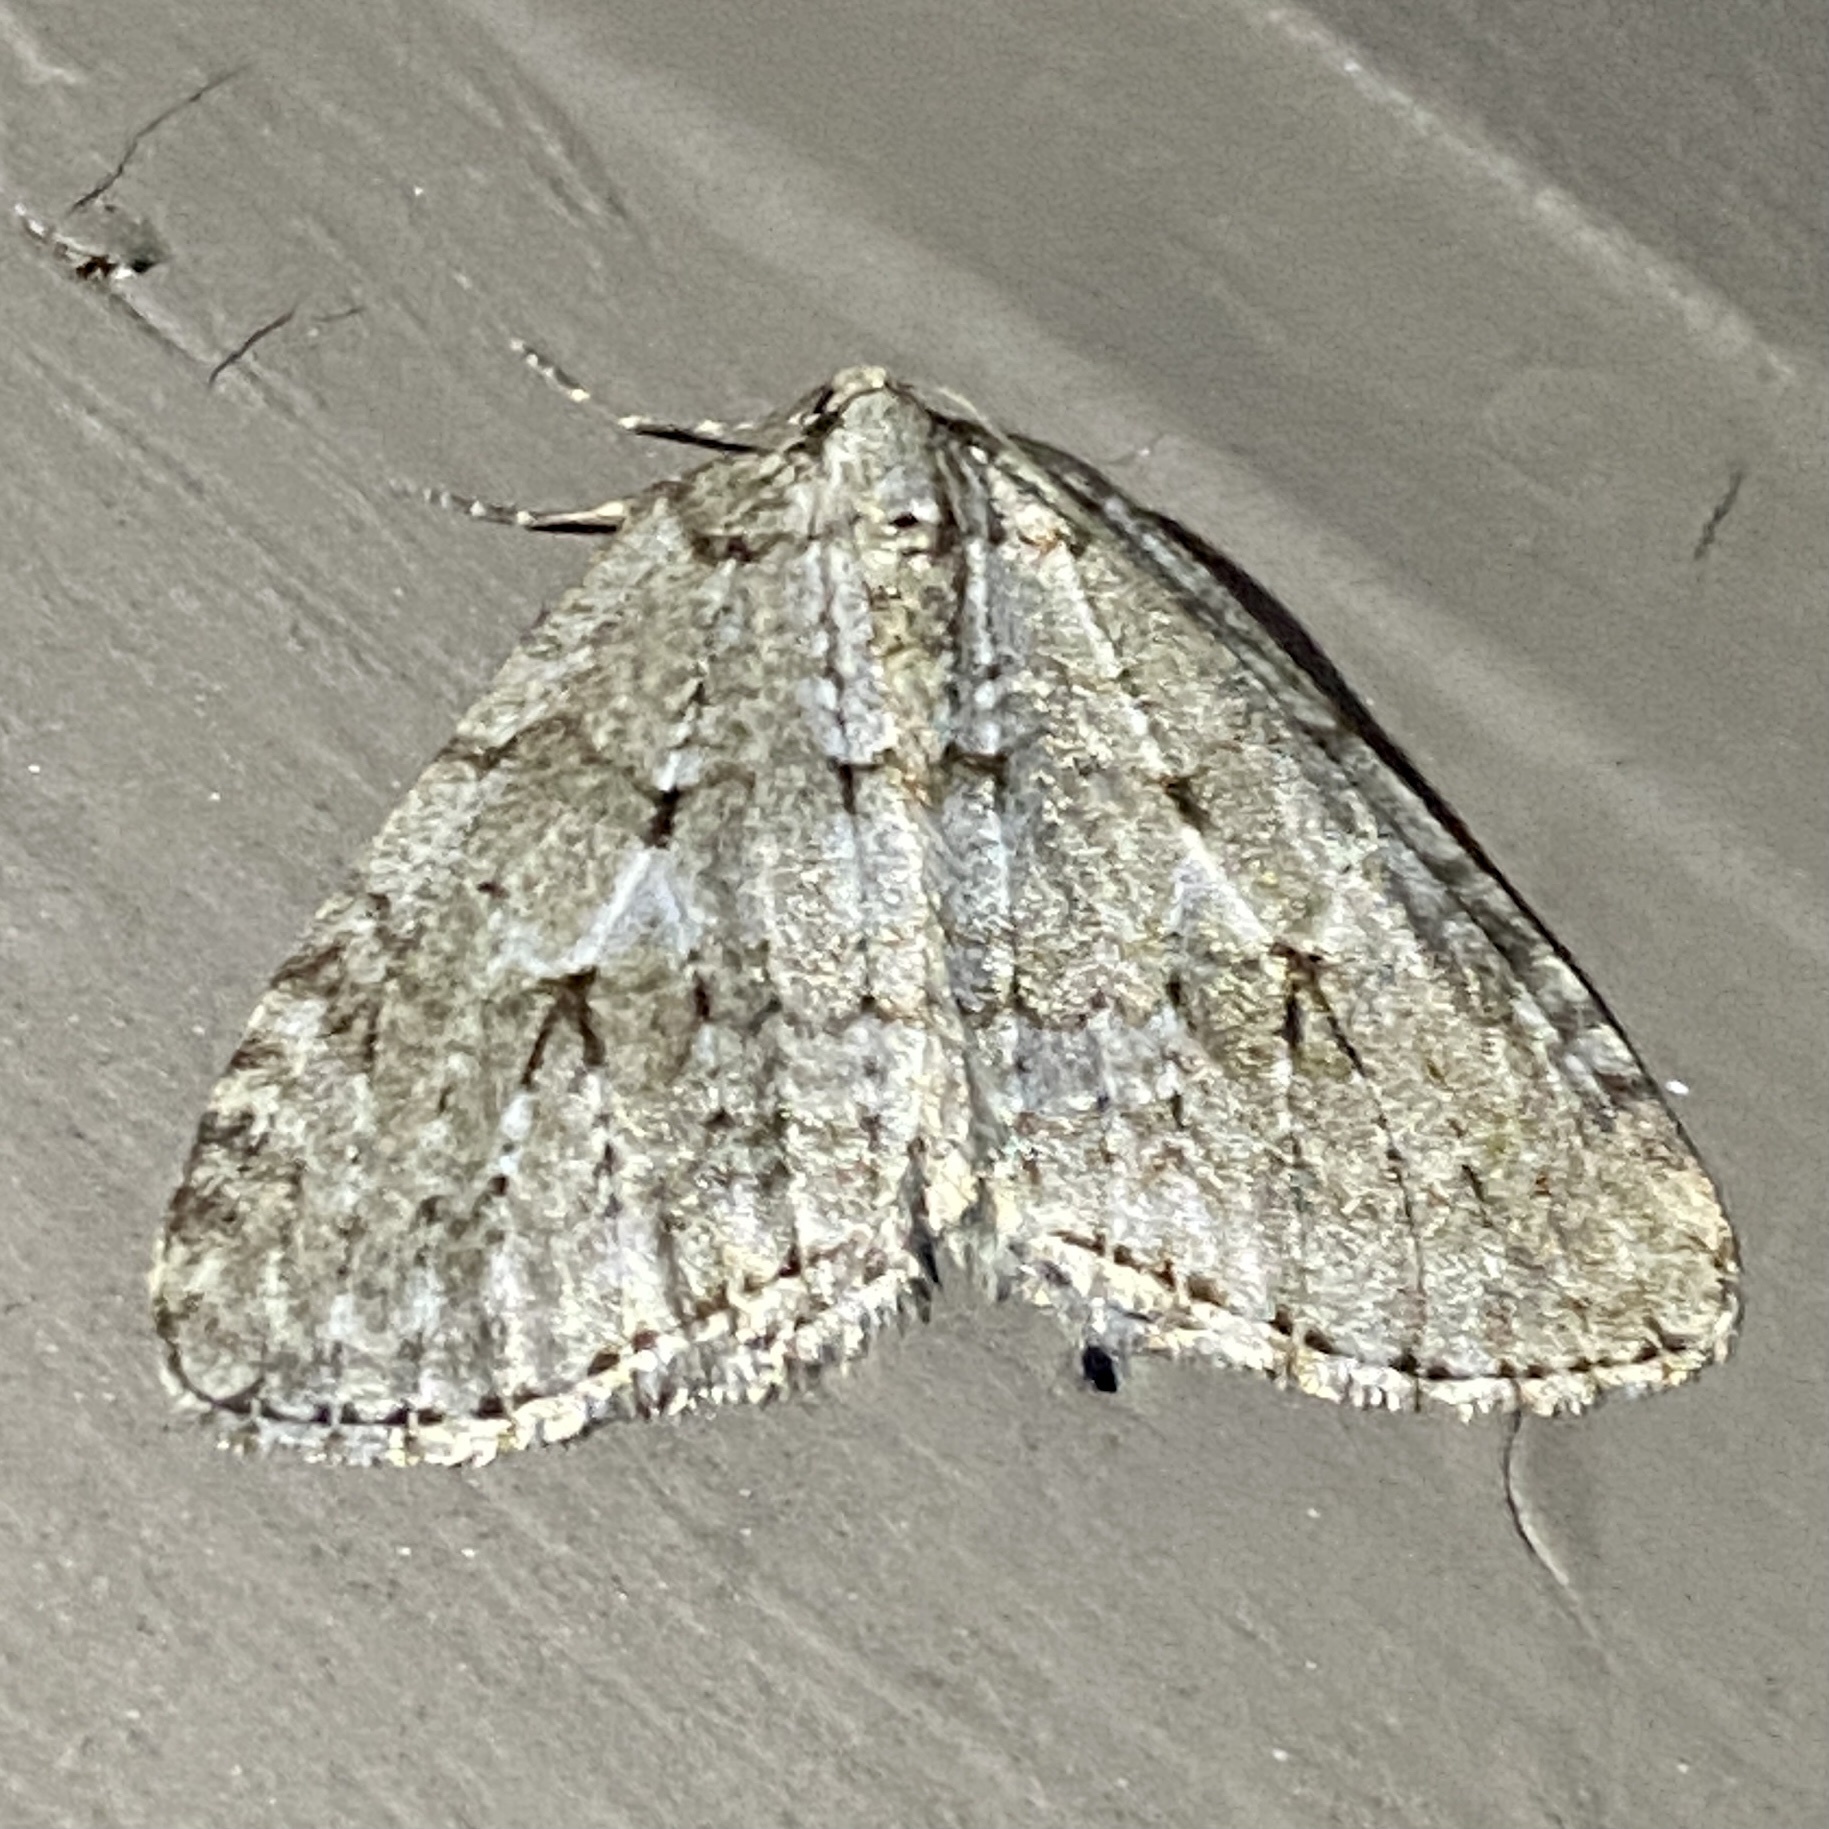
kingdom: Animalia
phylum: Arthropoda
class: Insecta
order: Lepidoptera
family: Geometridae
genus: Epirrita
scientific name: Epirrita autumnata
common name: Autumnal moth
